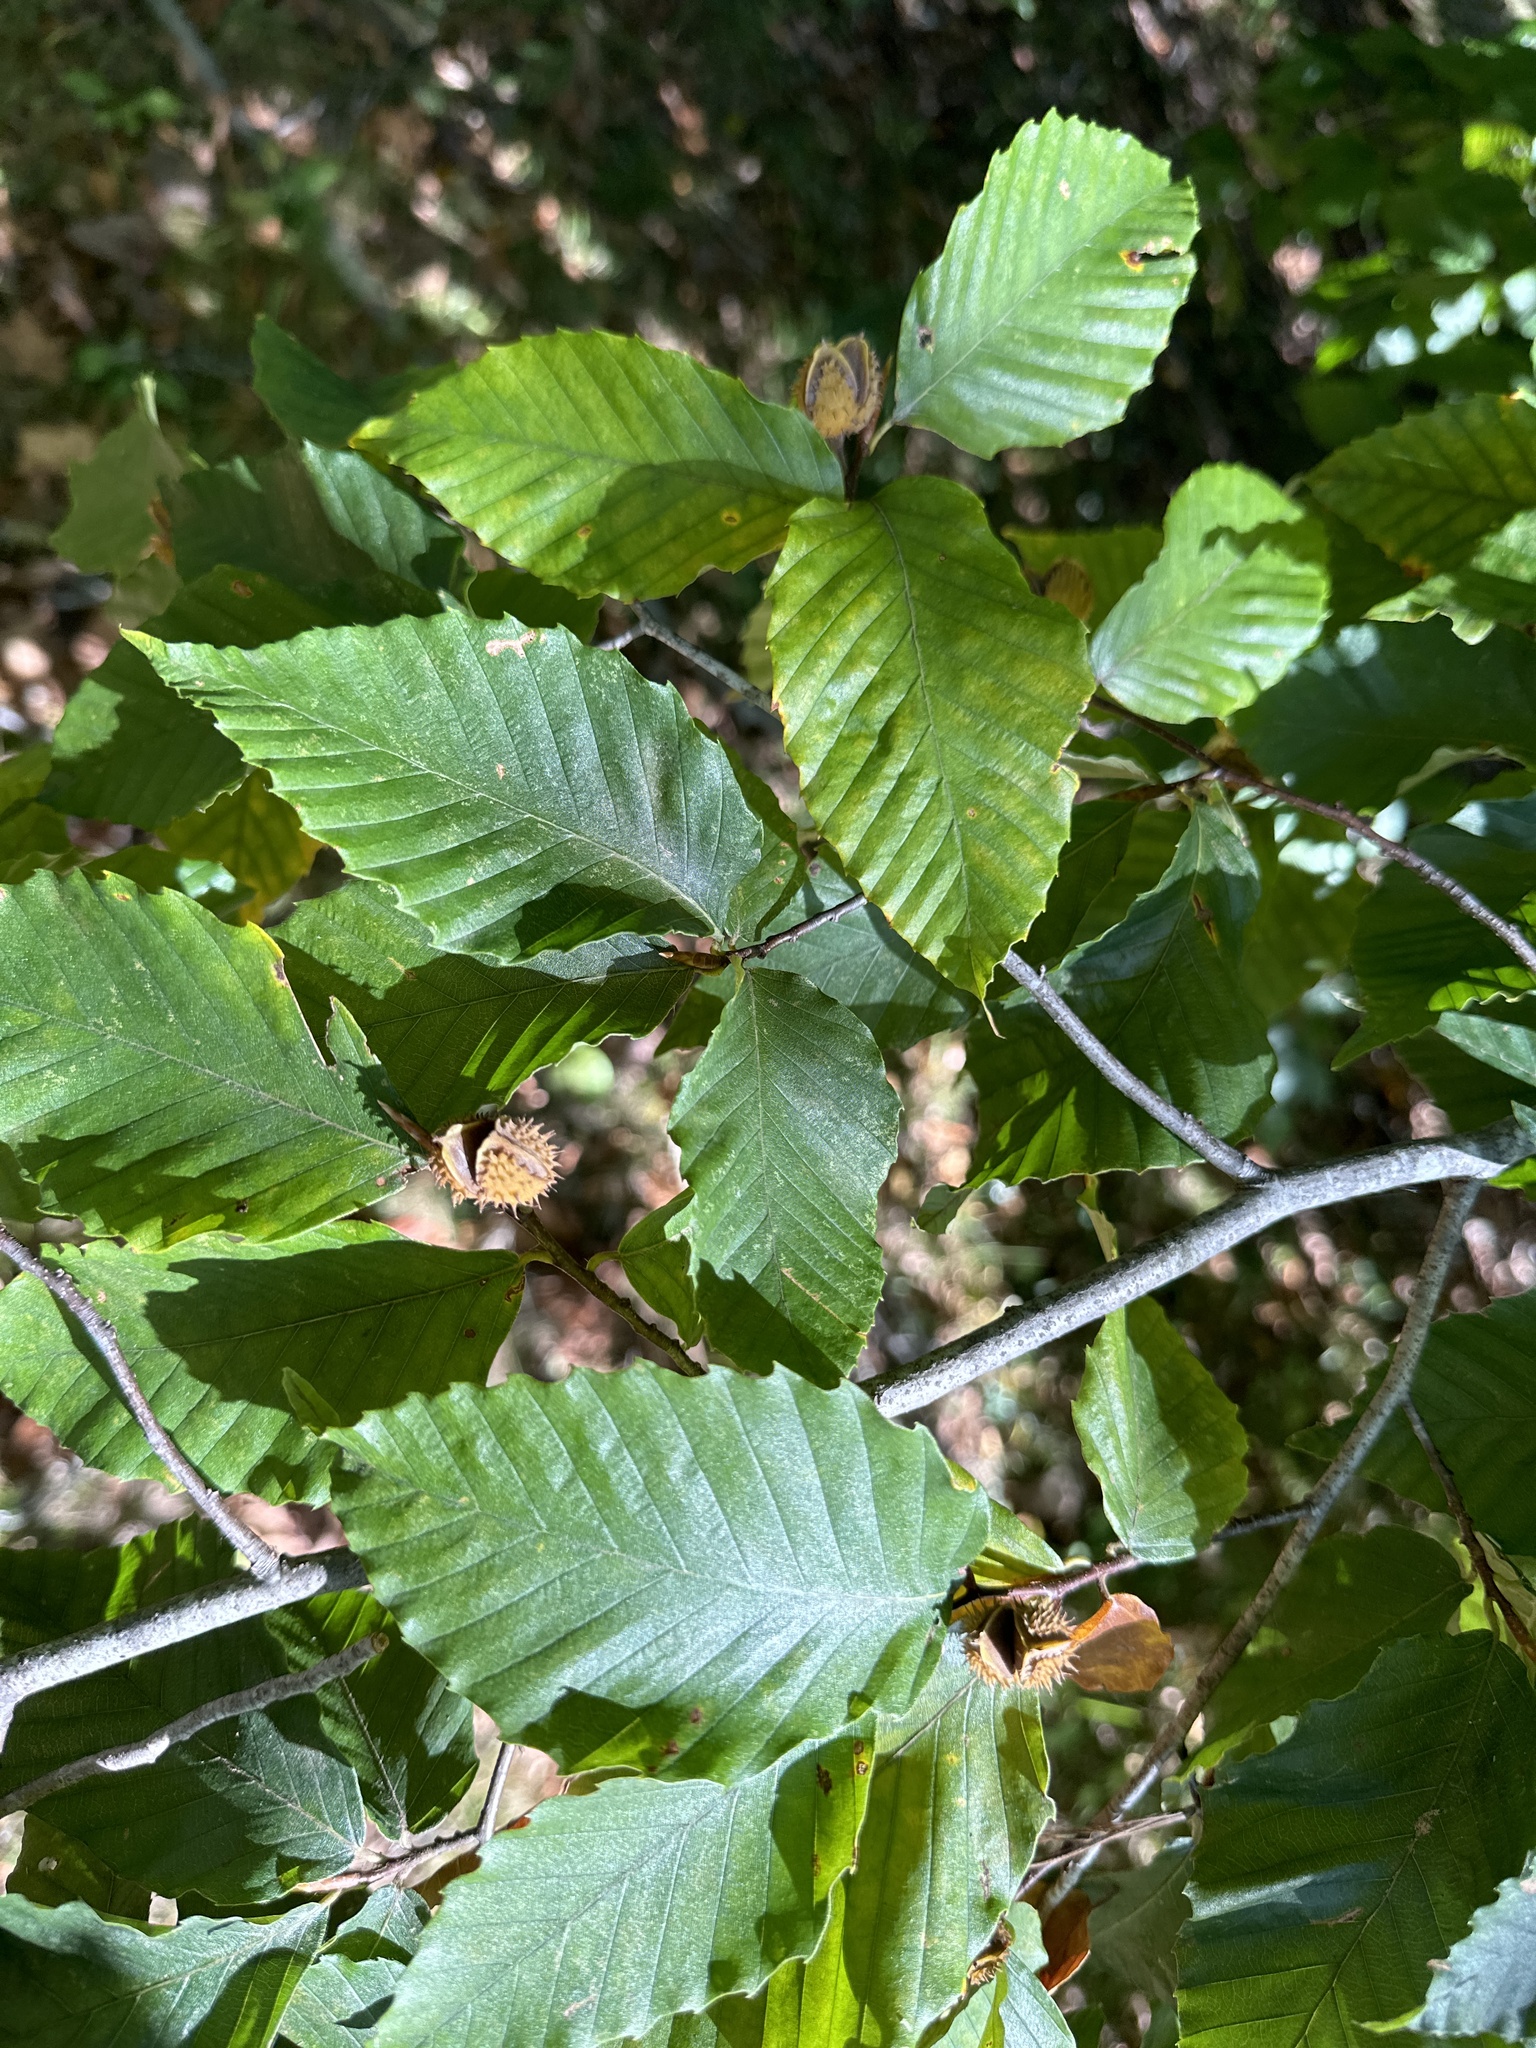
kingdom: Plantae
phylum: Tracheophyta
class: Magnoliopsida
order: Fagales
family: Fagaceae
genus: Fagus
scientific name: Fagus grandifolia
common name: American beech
